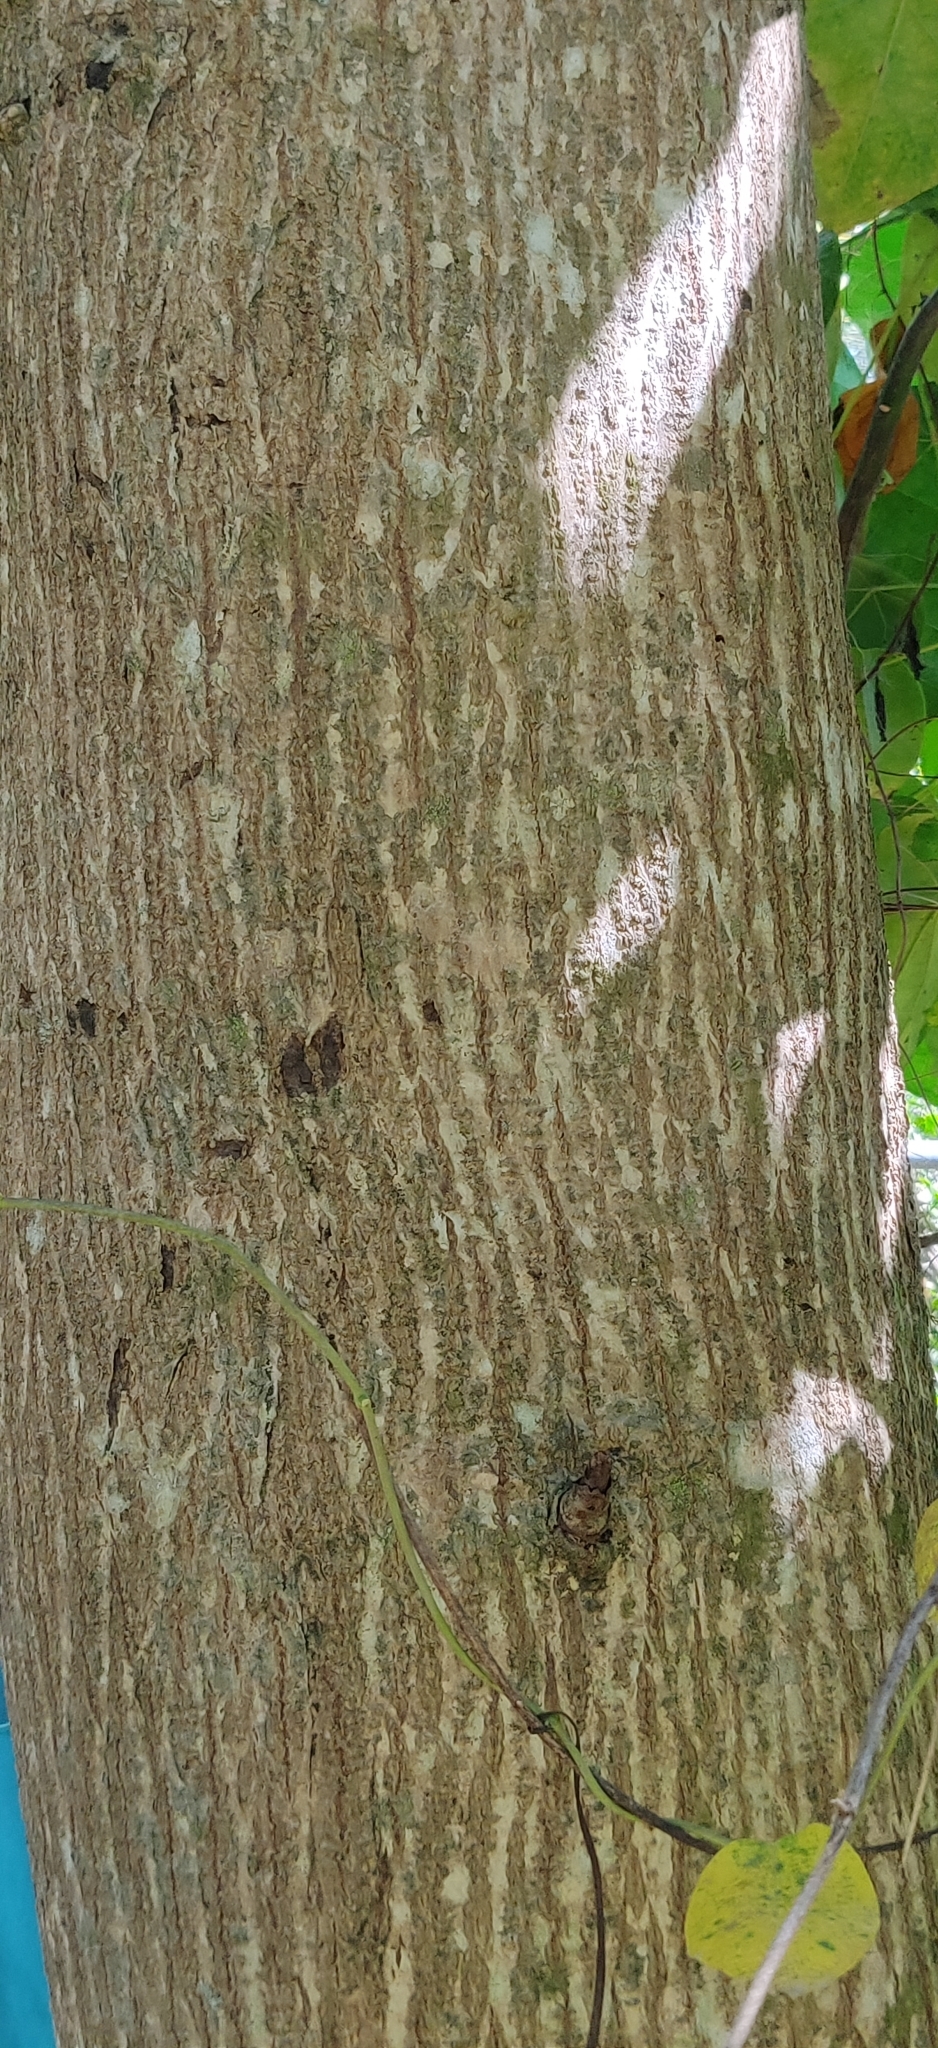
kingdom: Plantae
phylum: Tracheophyta
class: Magnoliopsida
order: Laurales
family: Hernandiaceae
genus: Hernandia
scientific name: Hernandia nymphaeifolia
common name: Sea hearse
